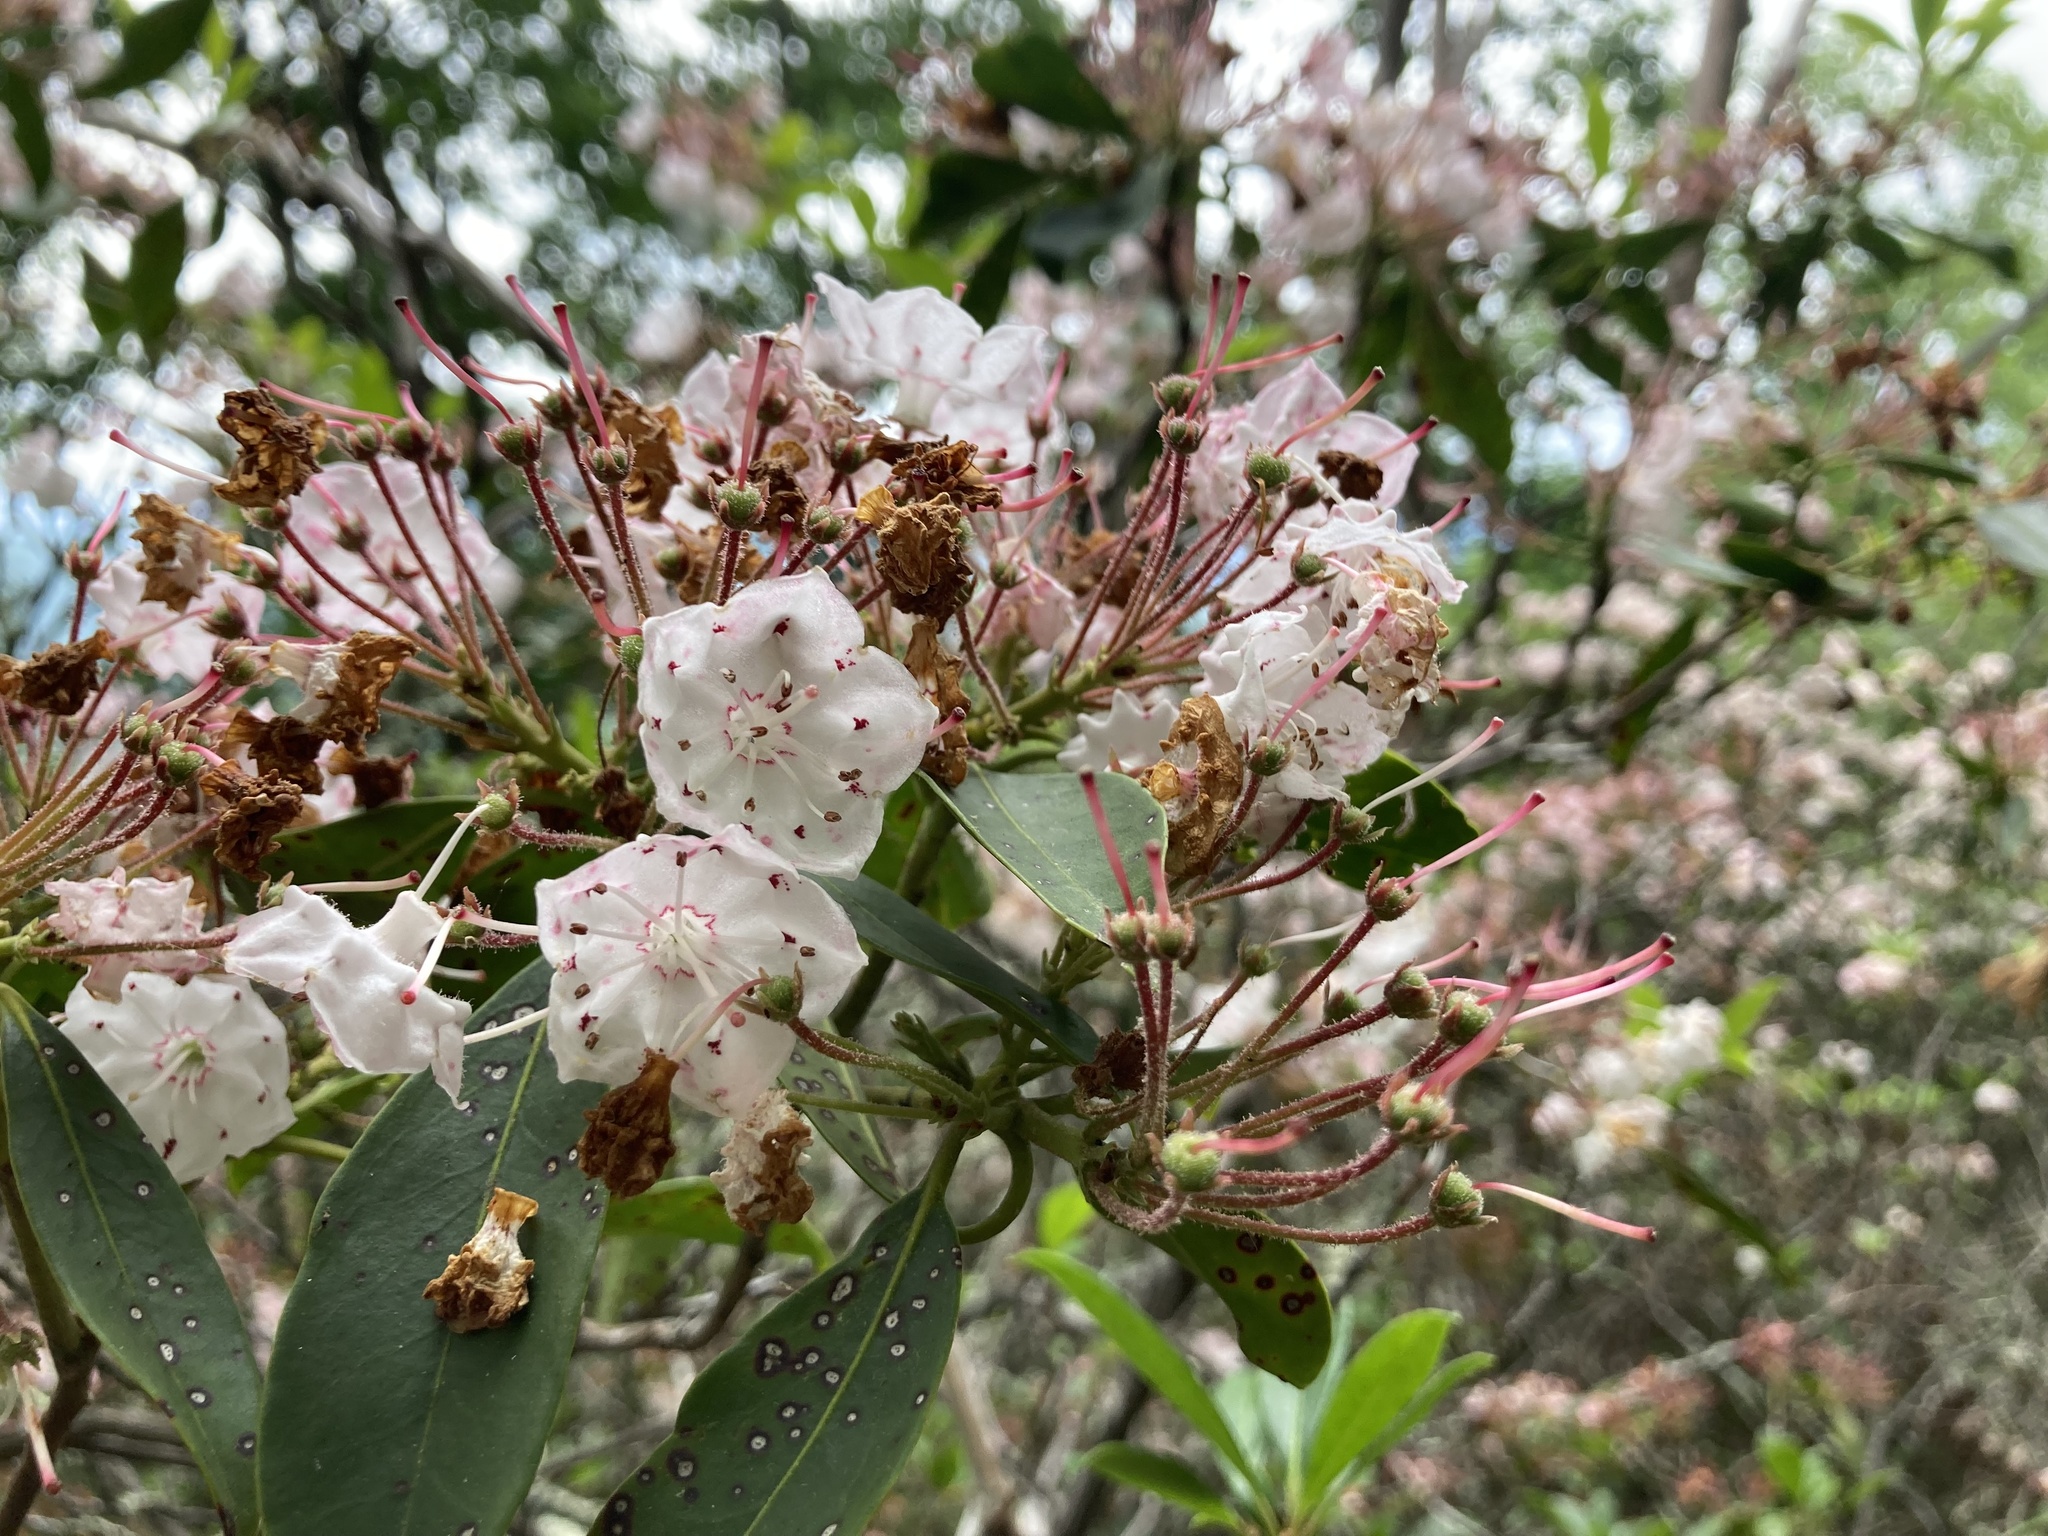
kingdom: Plantae
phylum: Tracheophyta
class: Magnoliopsida
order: Ericales
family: Ericaceae
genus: Kalmia
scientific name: Kalmia latifolia
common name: Mountain-laurel
